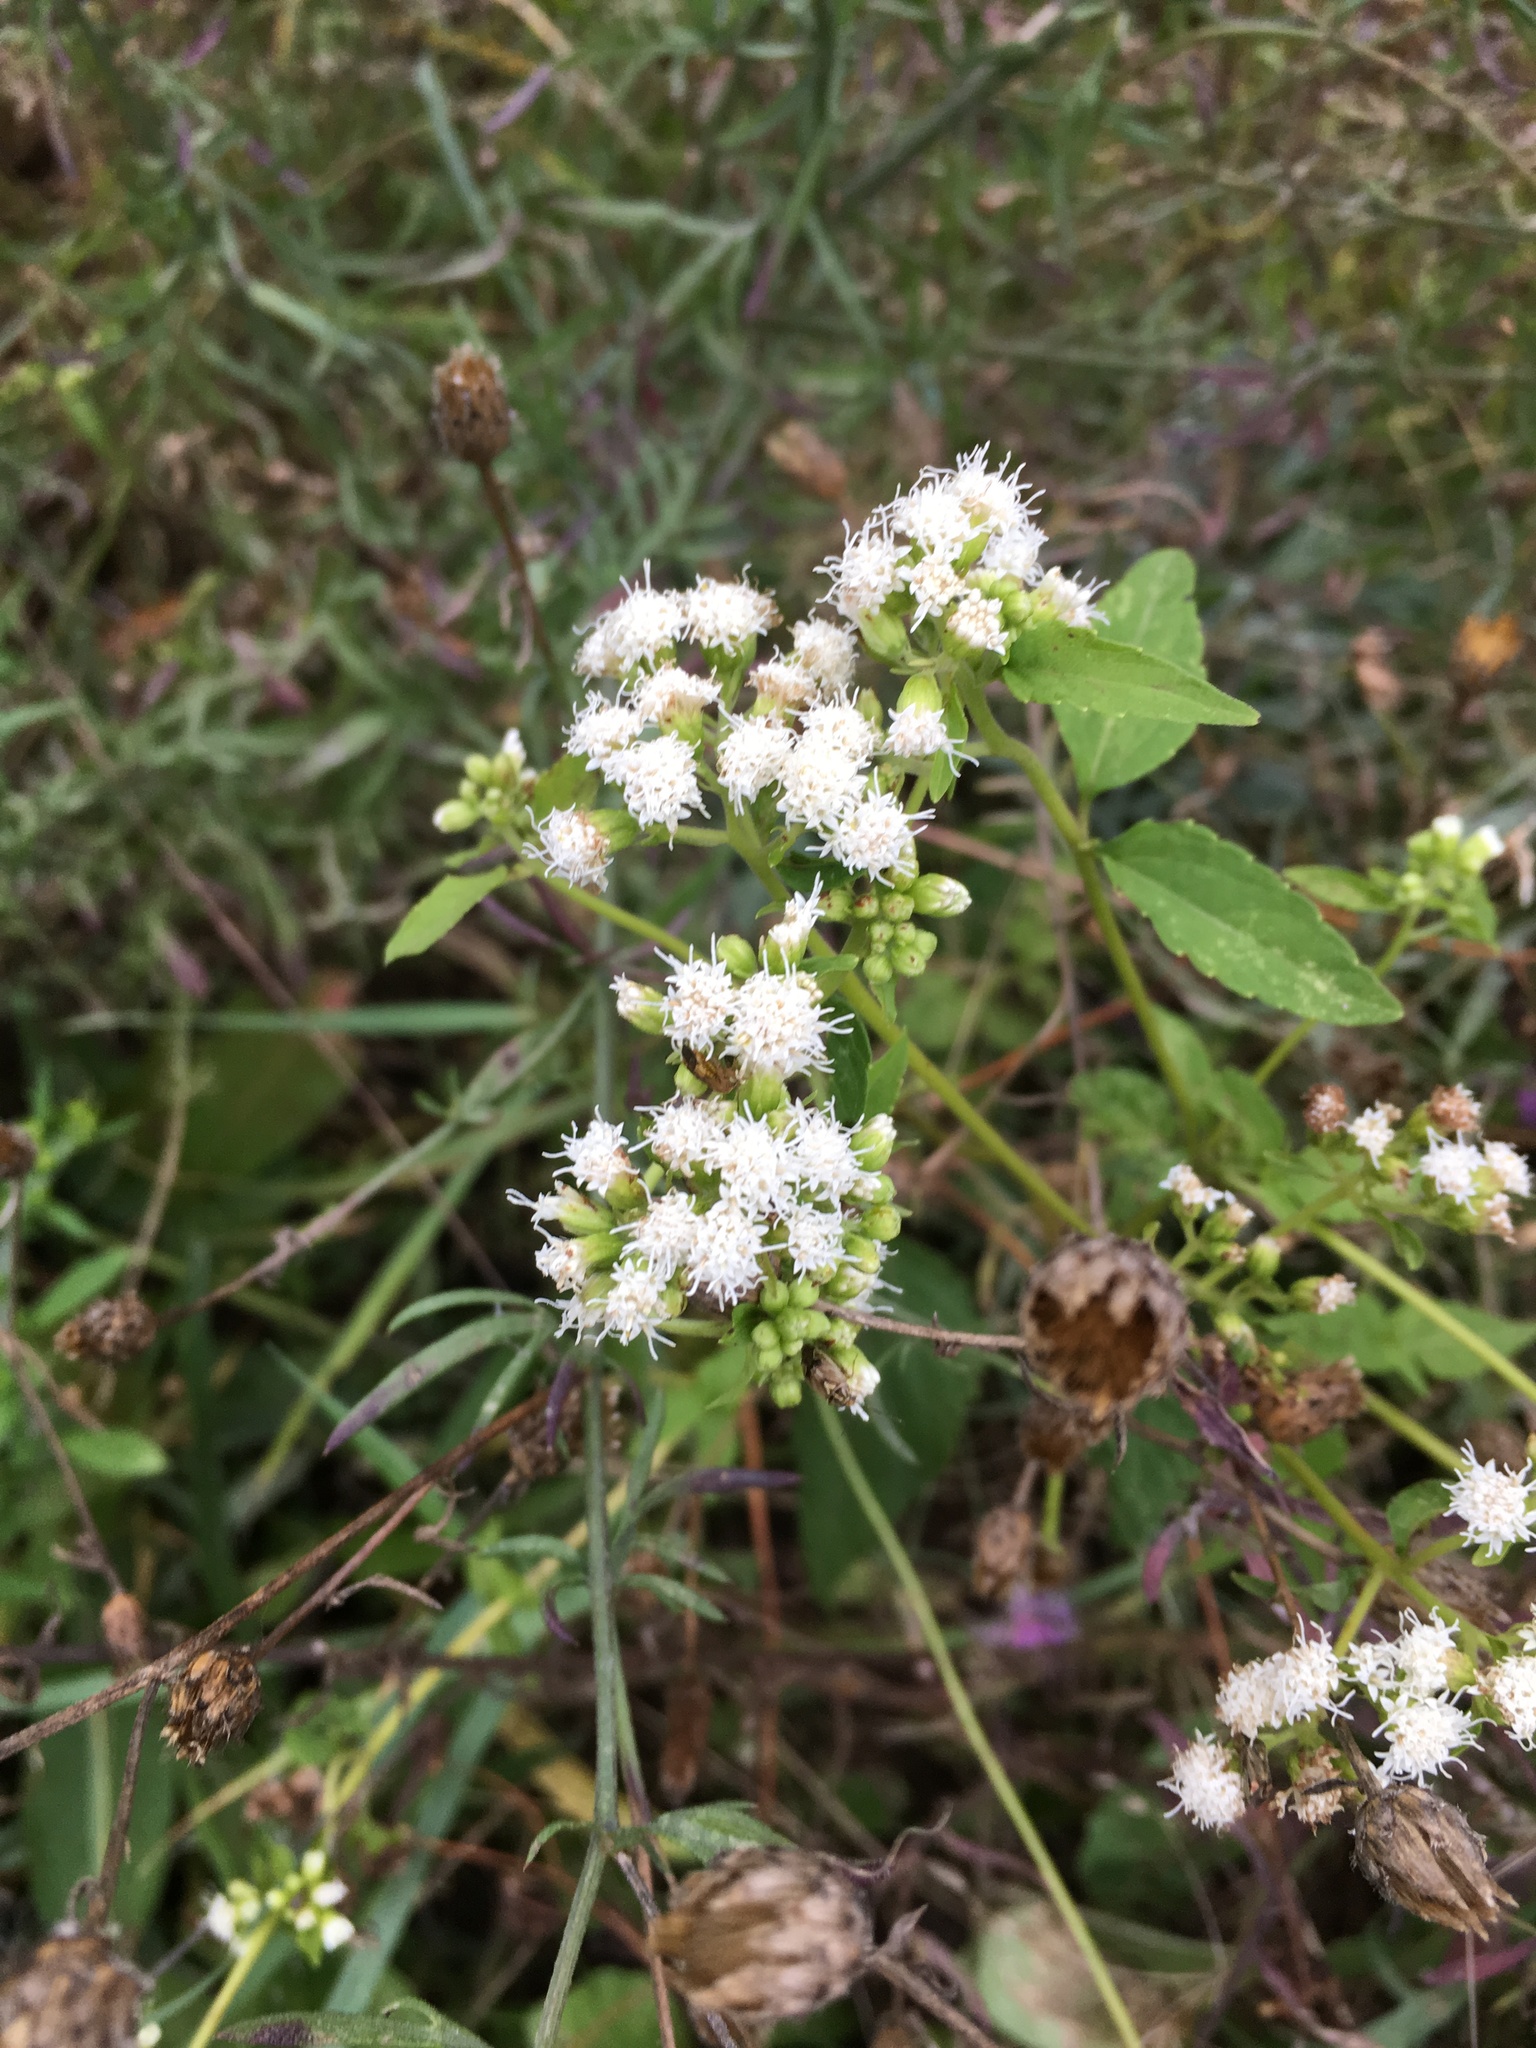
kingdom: Plantae
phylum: Tracheophyta
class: Magnoliopsida
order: Asterales
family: Asteraceae
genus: Ageratina
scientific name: Ageratina altissima
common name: White snakeroot
